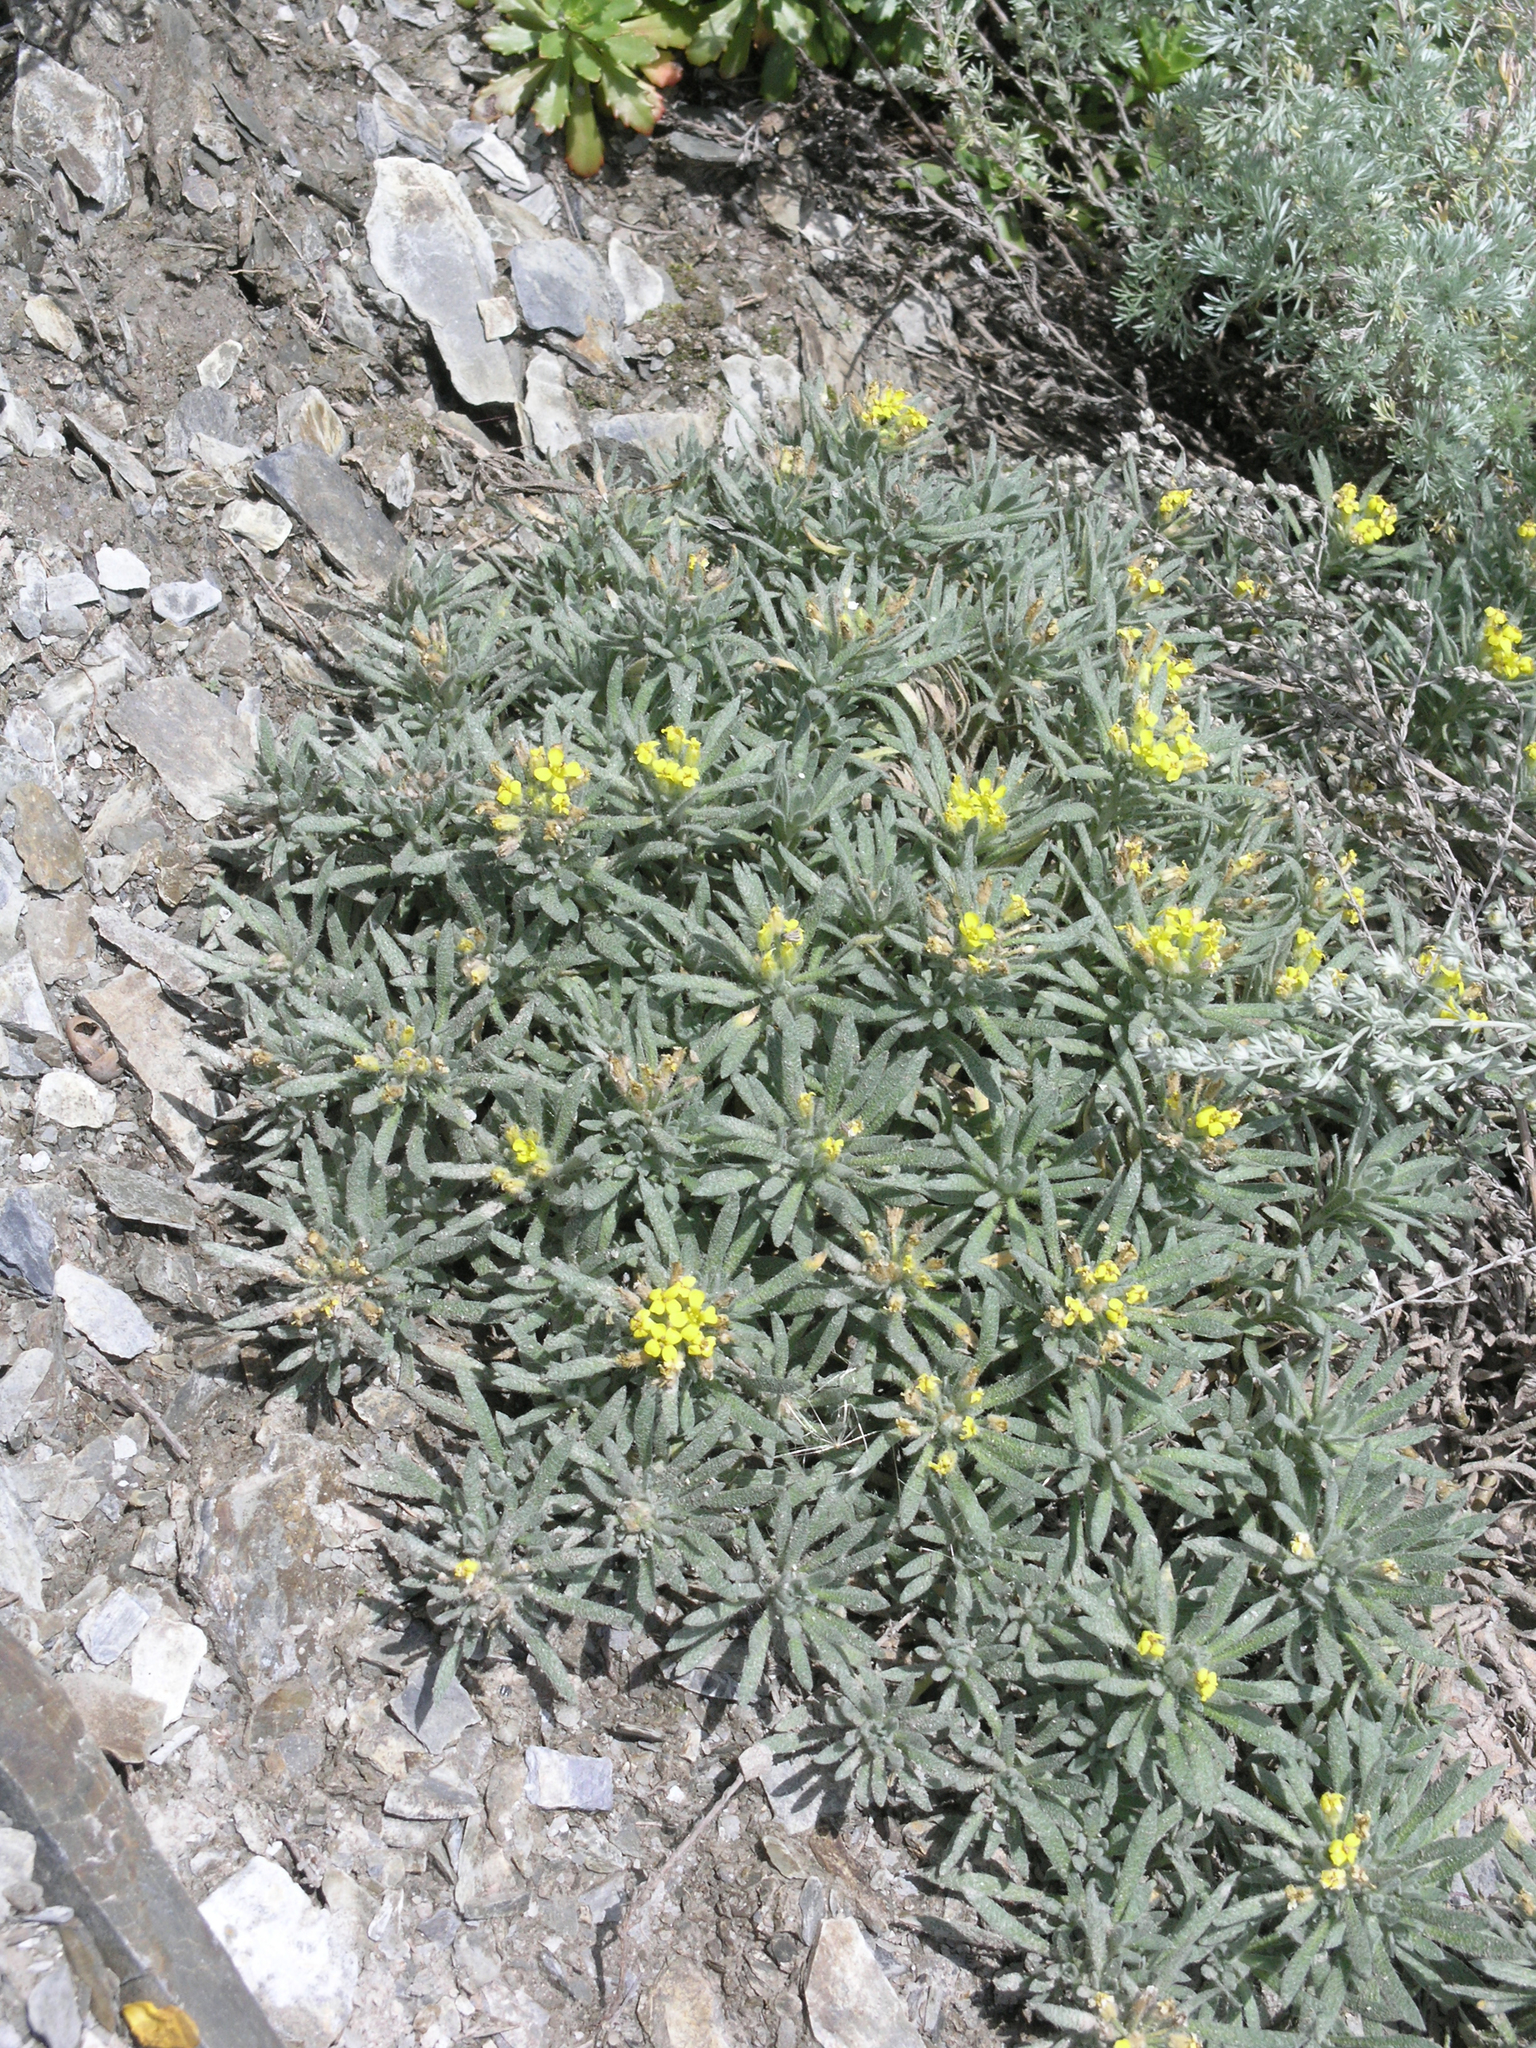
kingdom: Plantae
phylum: Tracheophyta
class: Magnoliopsida
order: Brassicales
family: Brassicaceae
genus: Alyssum
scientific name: Alyssum lenense
